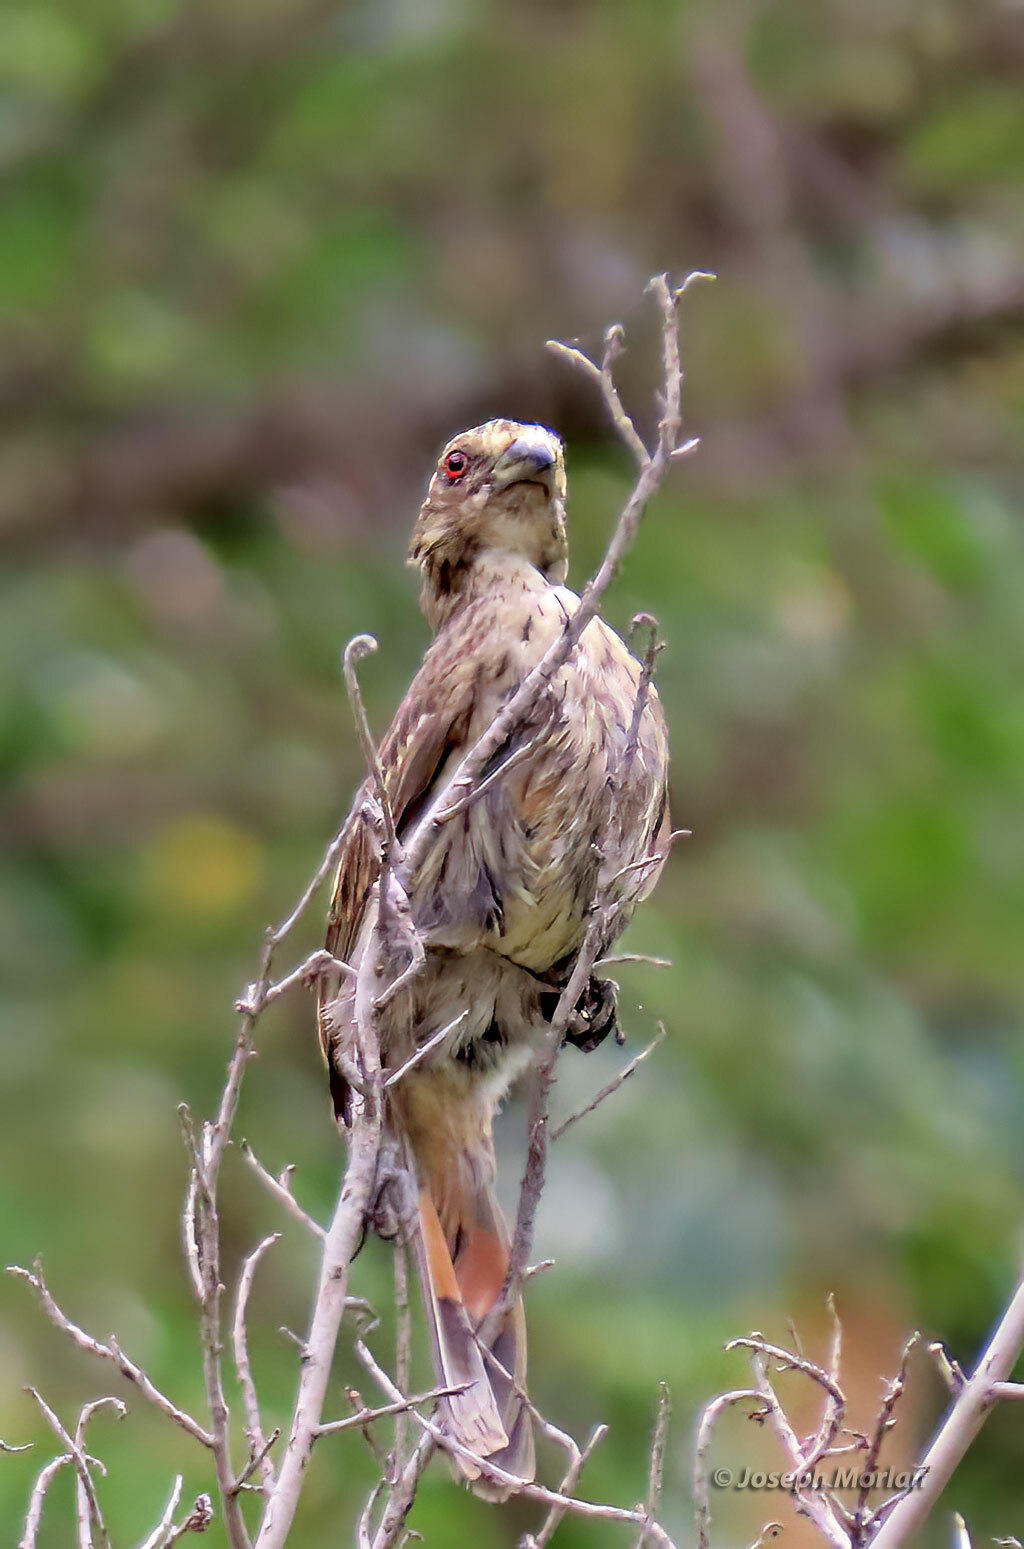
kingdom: Animalia
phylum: Chordata
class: Aves
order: Passeriformes
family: Cotingidae
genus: Phytotoma
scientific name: Phytotoma rara
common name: Rufous-tailed plantcutter
